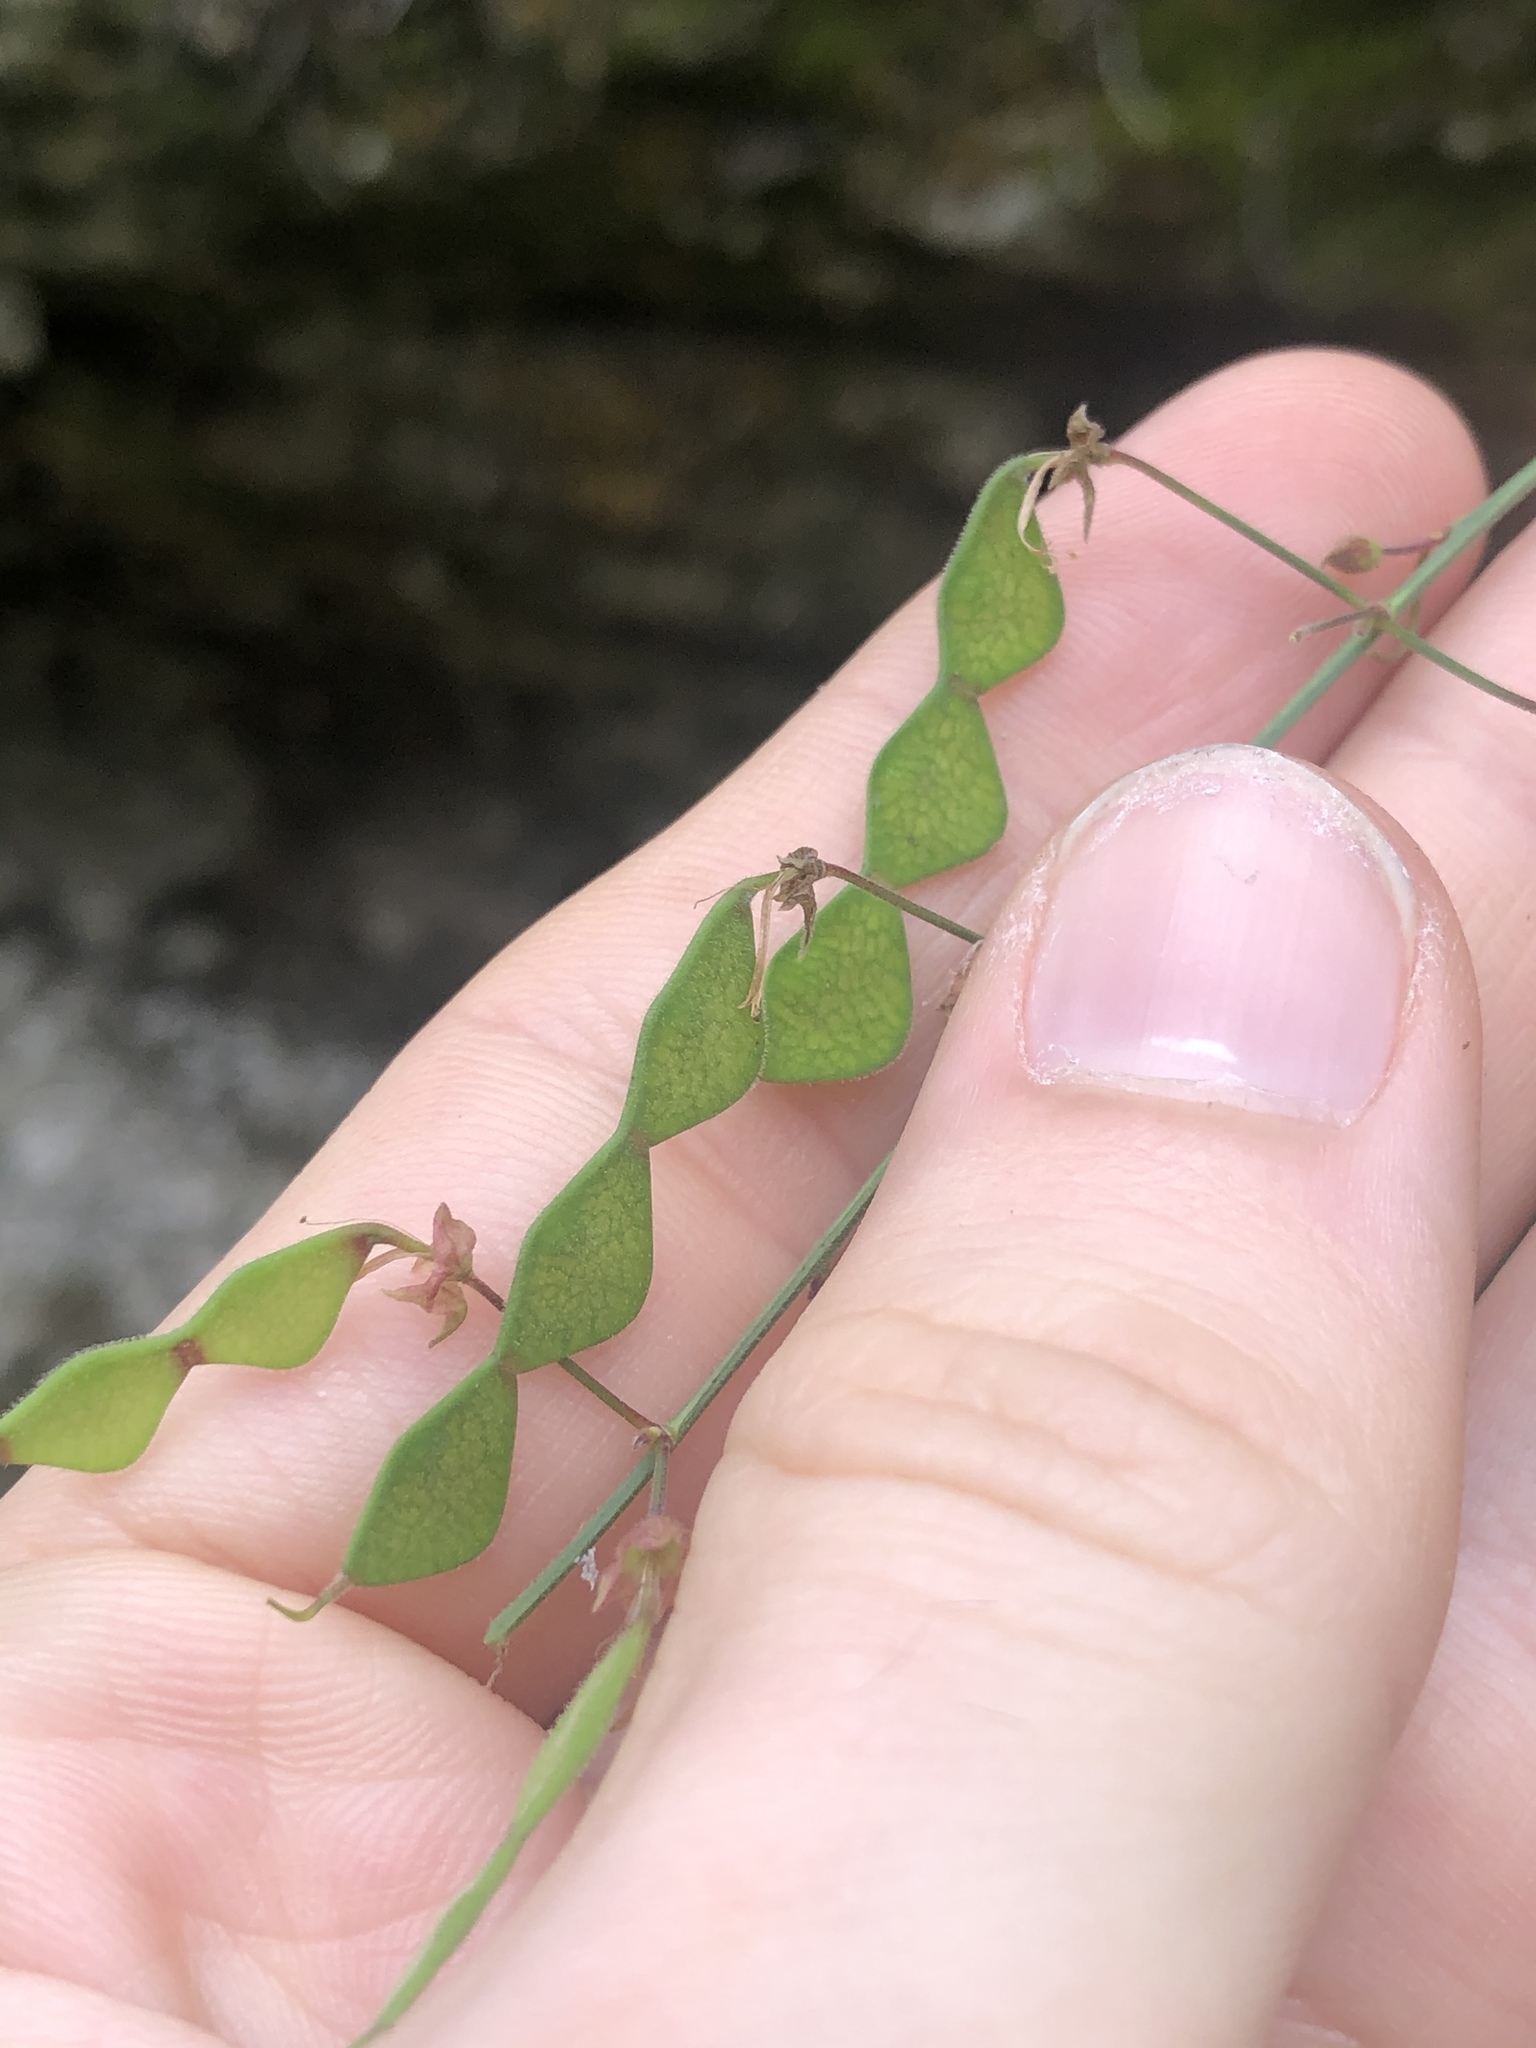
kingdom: Plantae
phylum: Tracheophyta
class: Magnoliopsida
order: Fabales
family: Fabaceae
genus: Desmodium
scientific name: Desmodium paniculatum
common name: Panicled tick-clover
